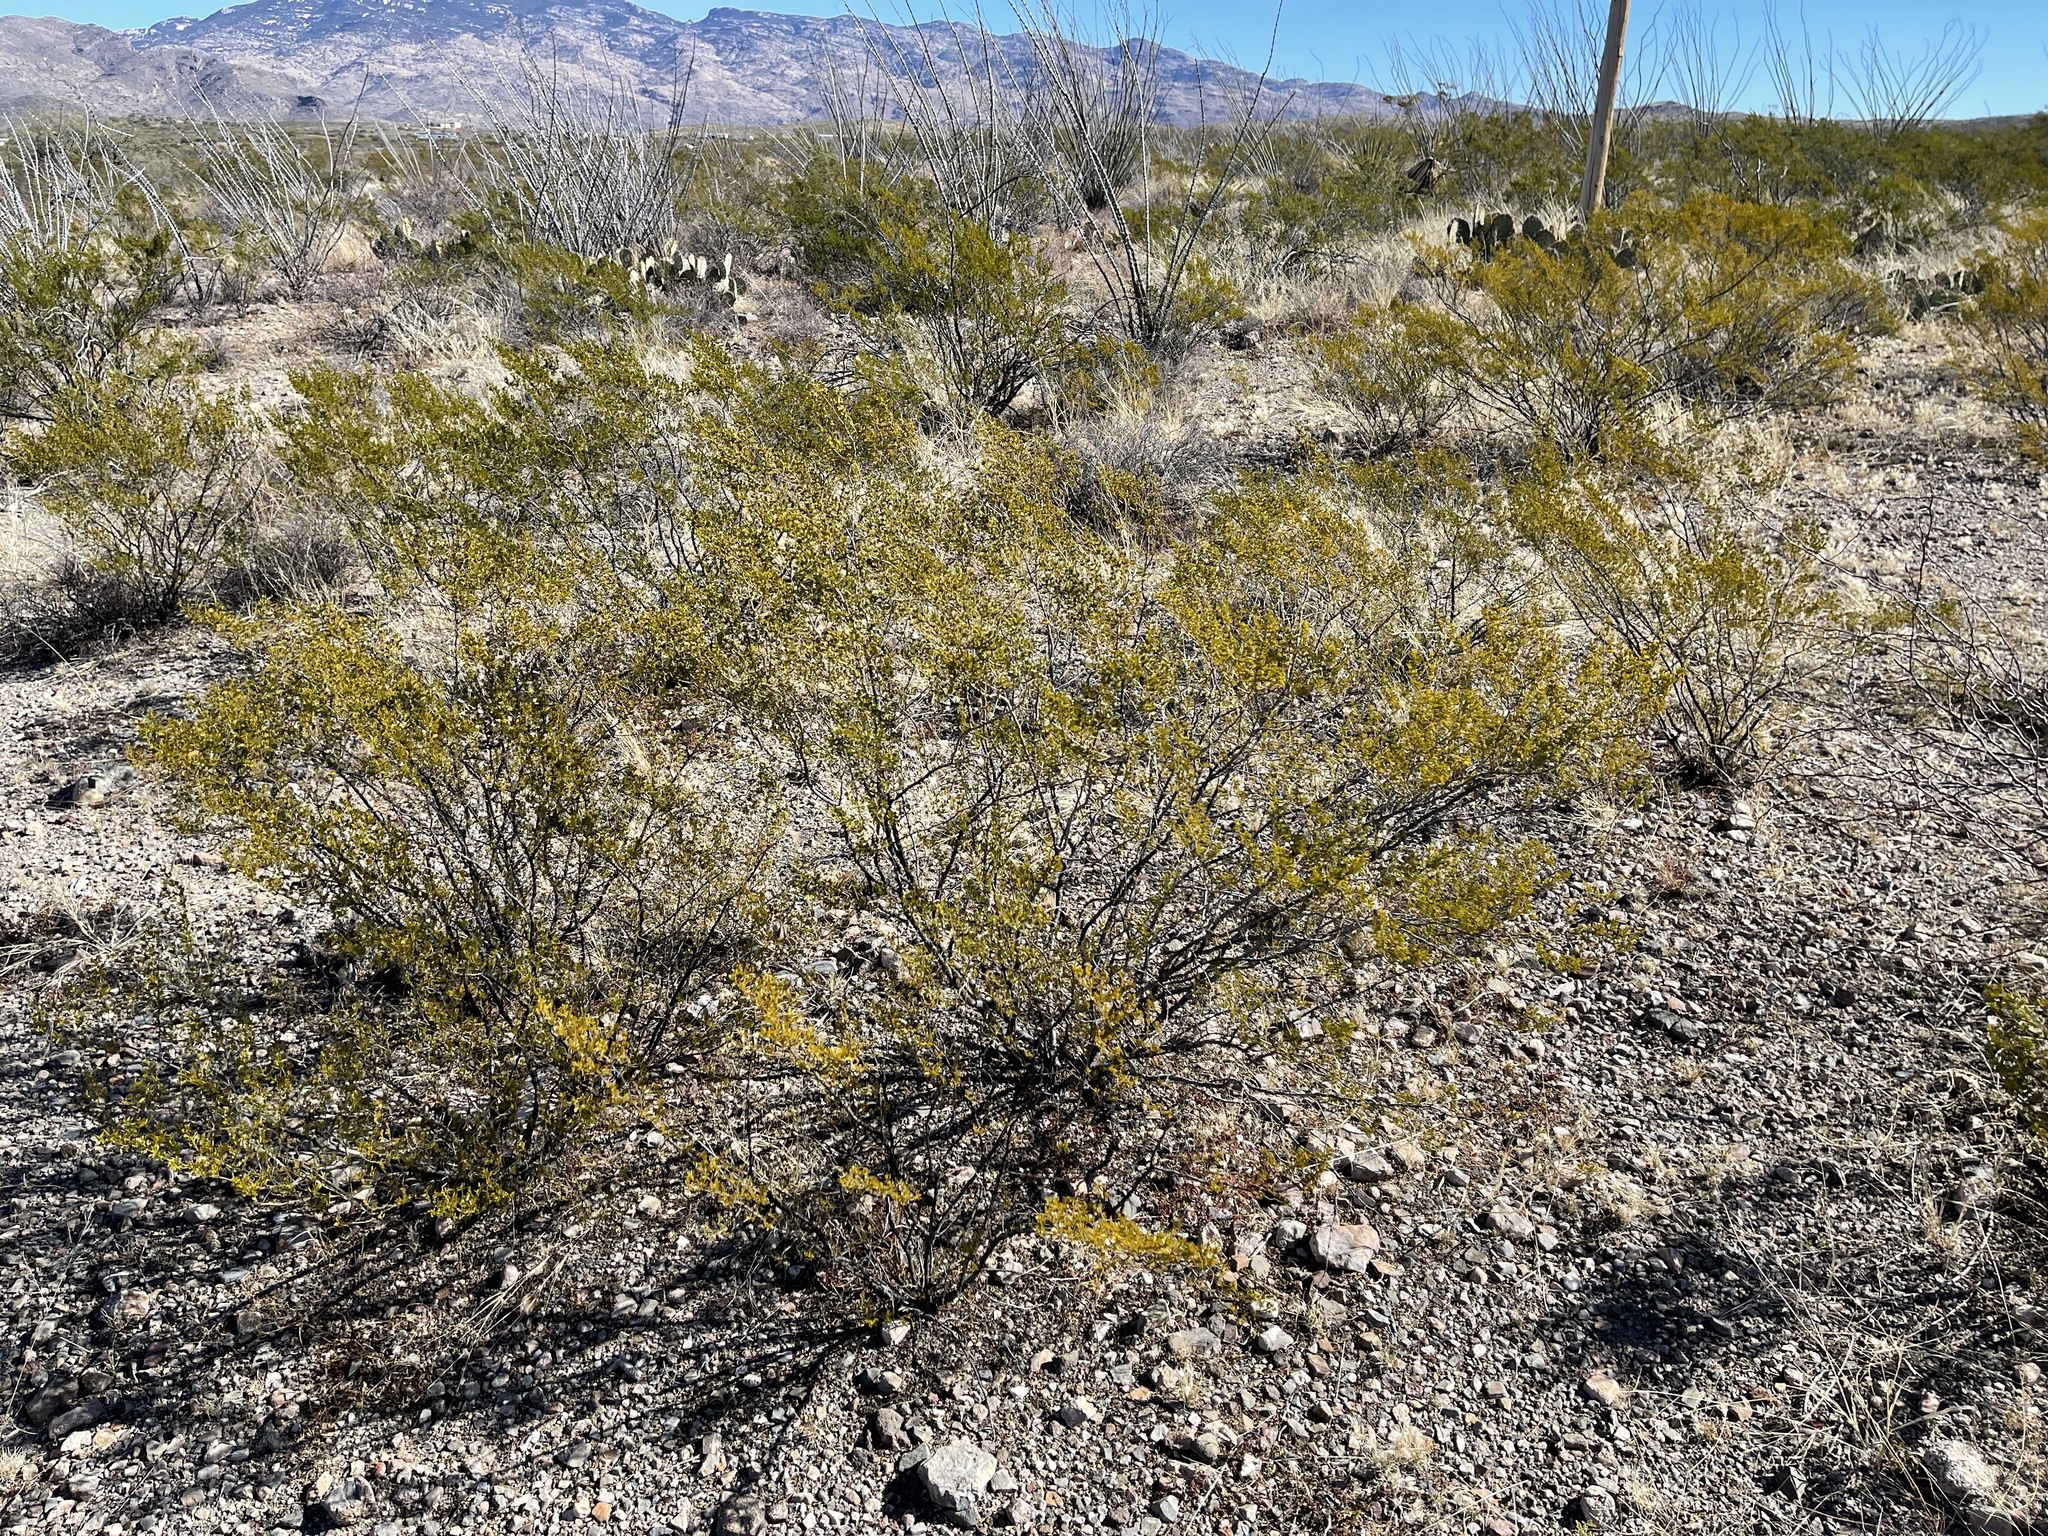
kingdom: Plantae
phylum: Tracheophyta
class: Magnoliopsida
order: Zygophyllales
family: Zygophyllaceae
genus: Larrea
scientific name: Larrea tridentata
